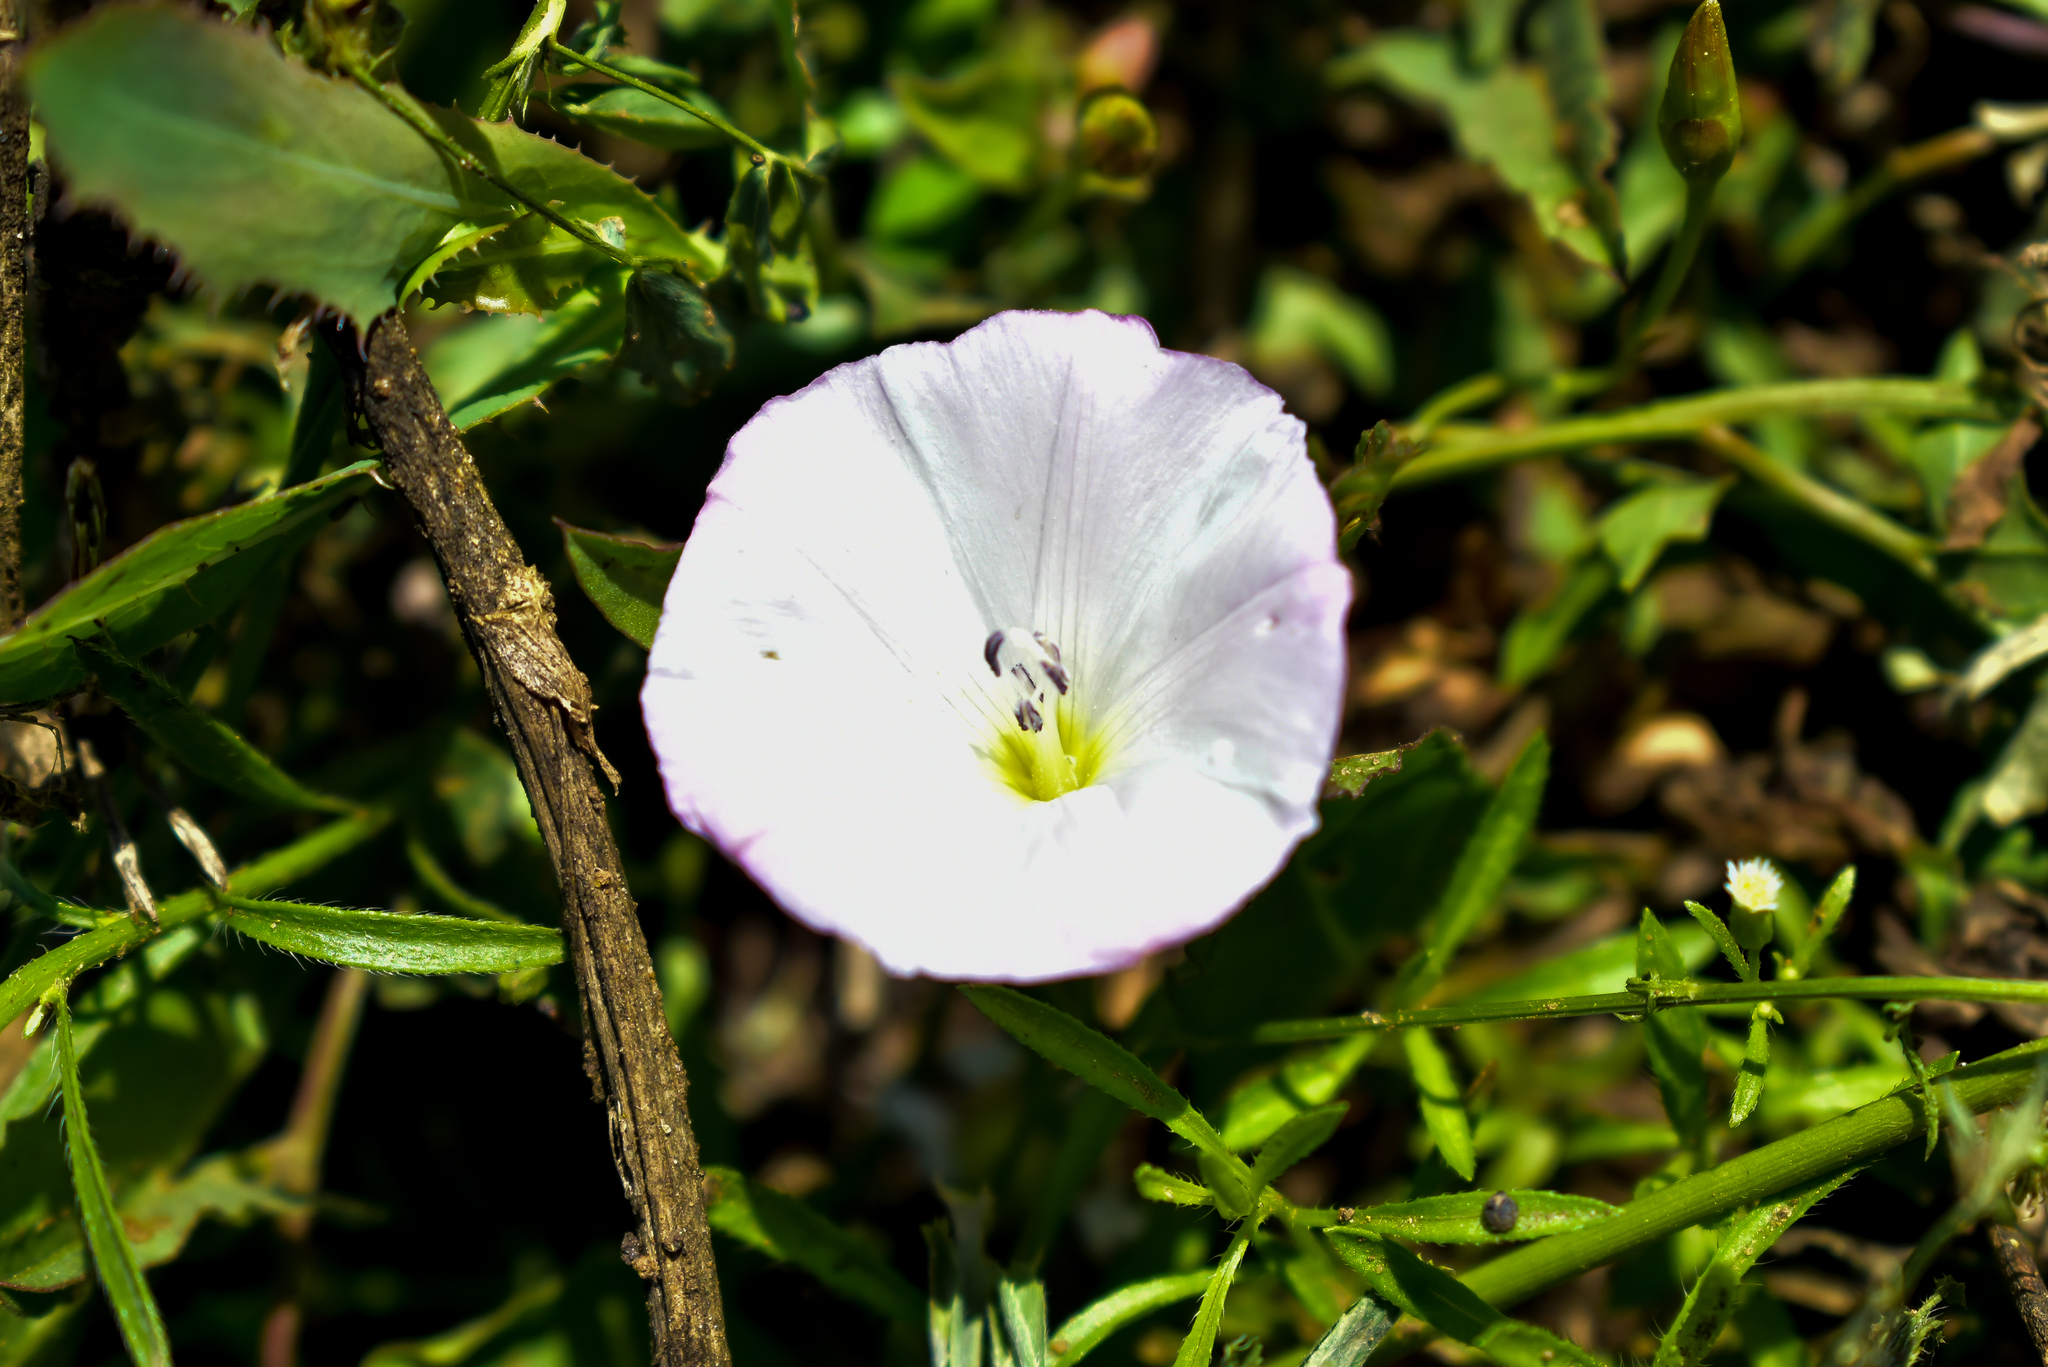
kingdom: Plantae
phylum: Tracheophyta
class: Magnoliopsida
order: Solanales
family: Convolvulaceae
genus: Convolvulus
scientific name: Convolvulus arvensis
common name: Field bindweed
